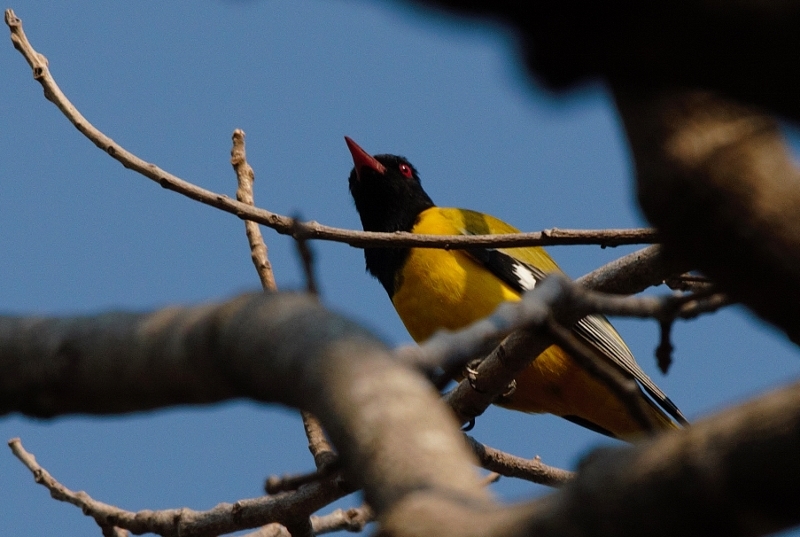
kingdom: Animalia
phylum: Chordata
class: Aves
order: Passeriformes
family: Oriolidae
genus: Oriolus
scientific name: Oriolus larvatus
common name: Black-headed oriole
